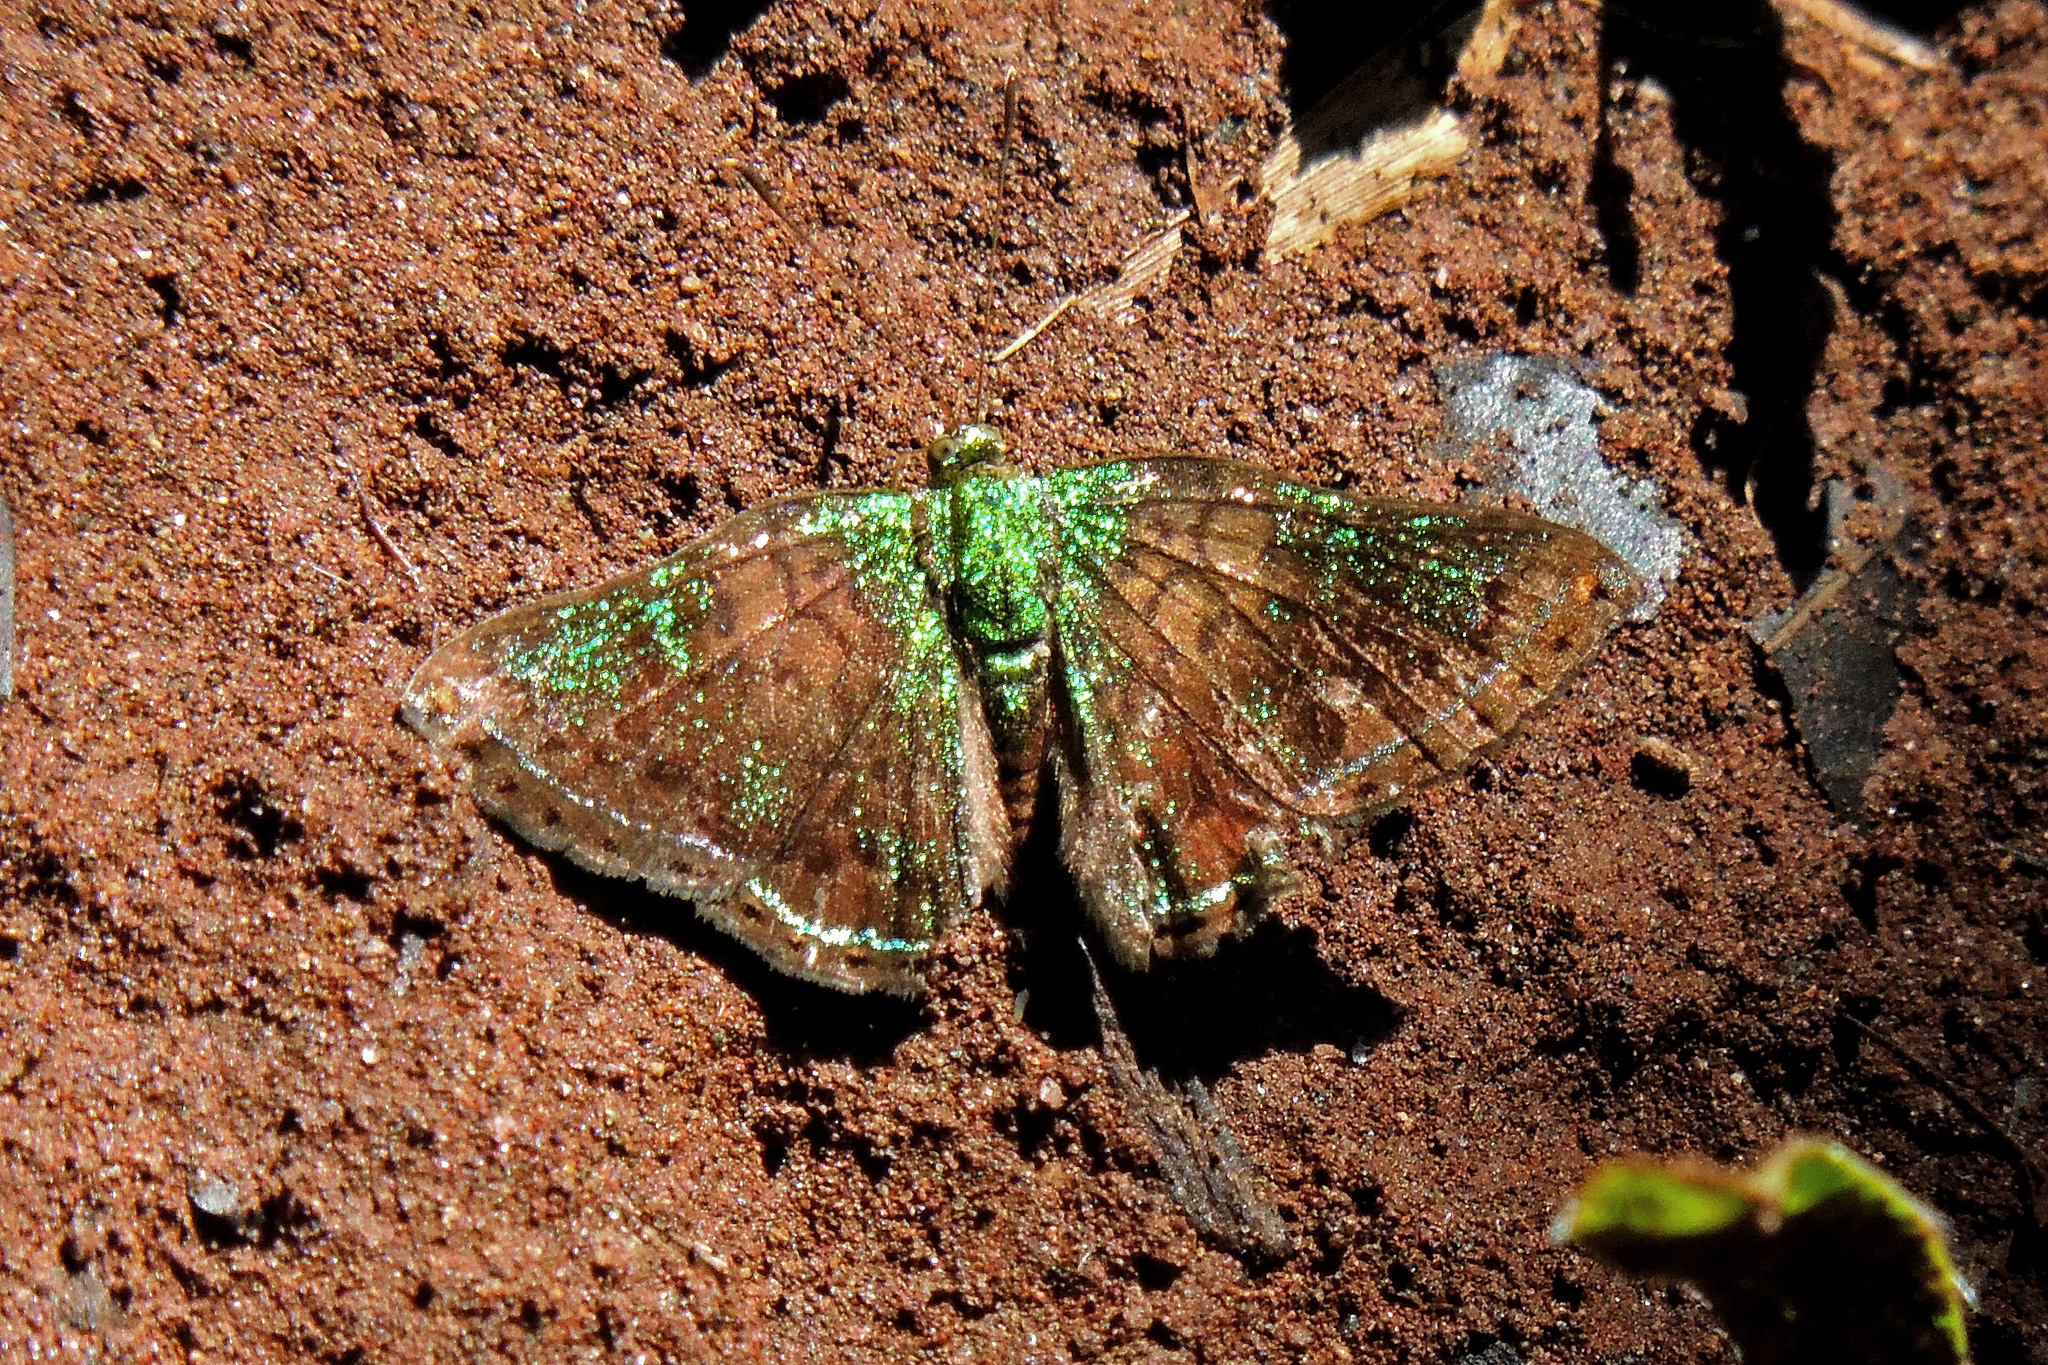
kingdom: Animalia
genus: Caria
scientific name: Caria castalia
